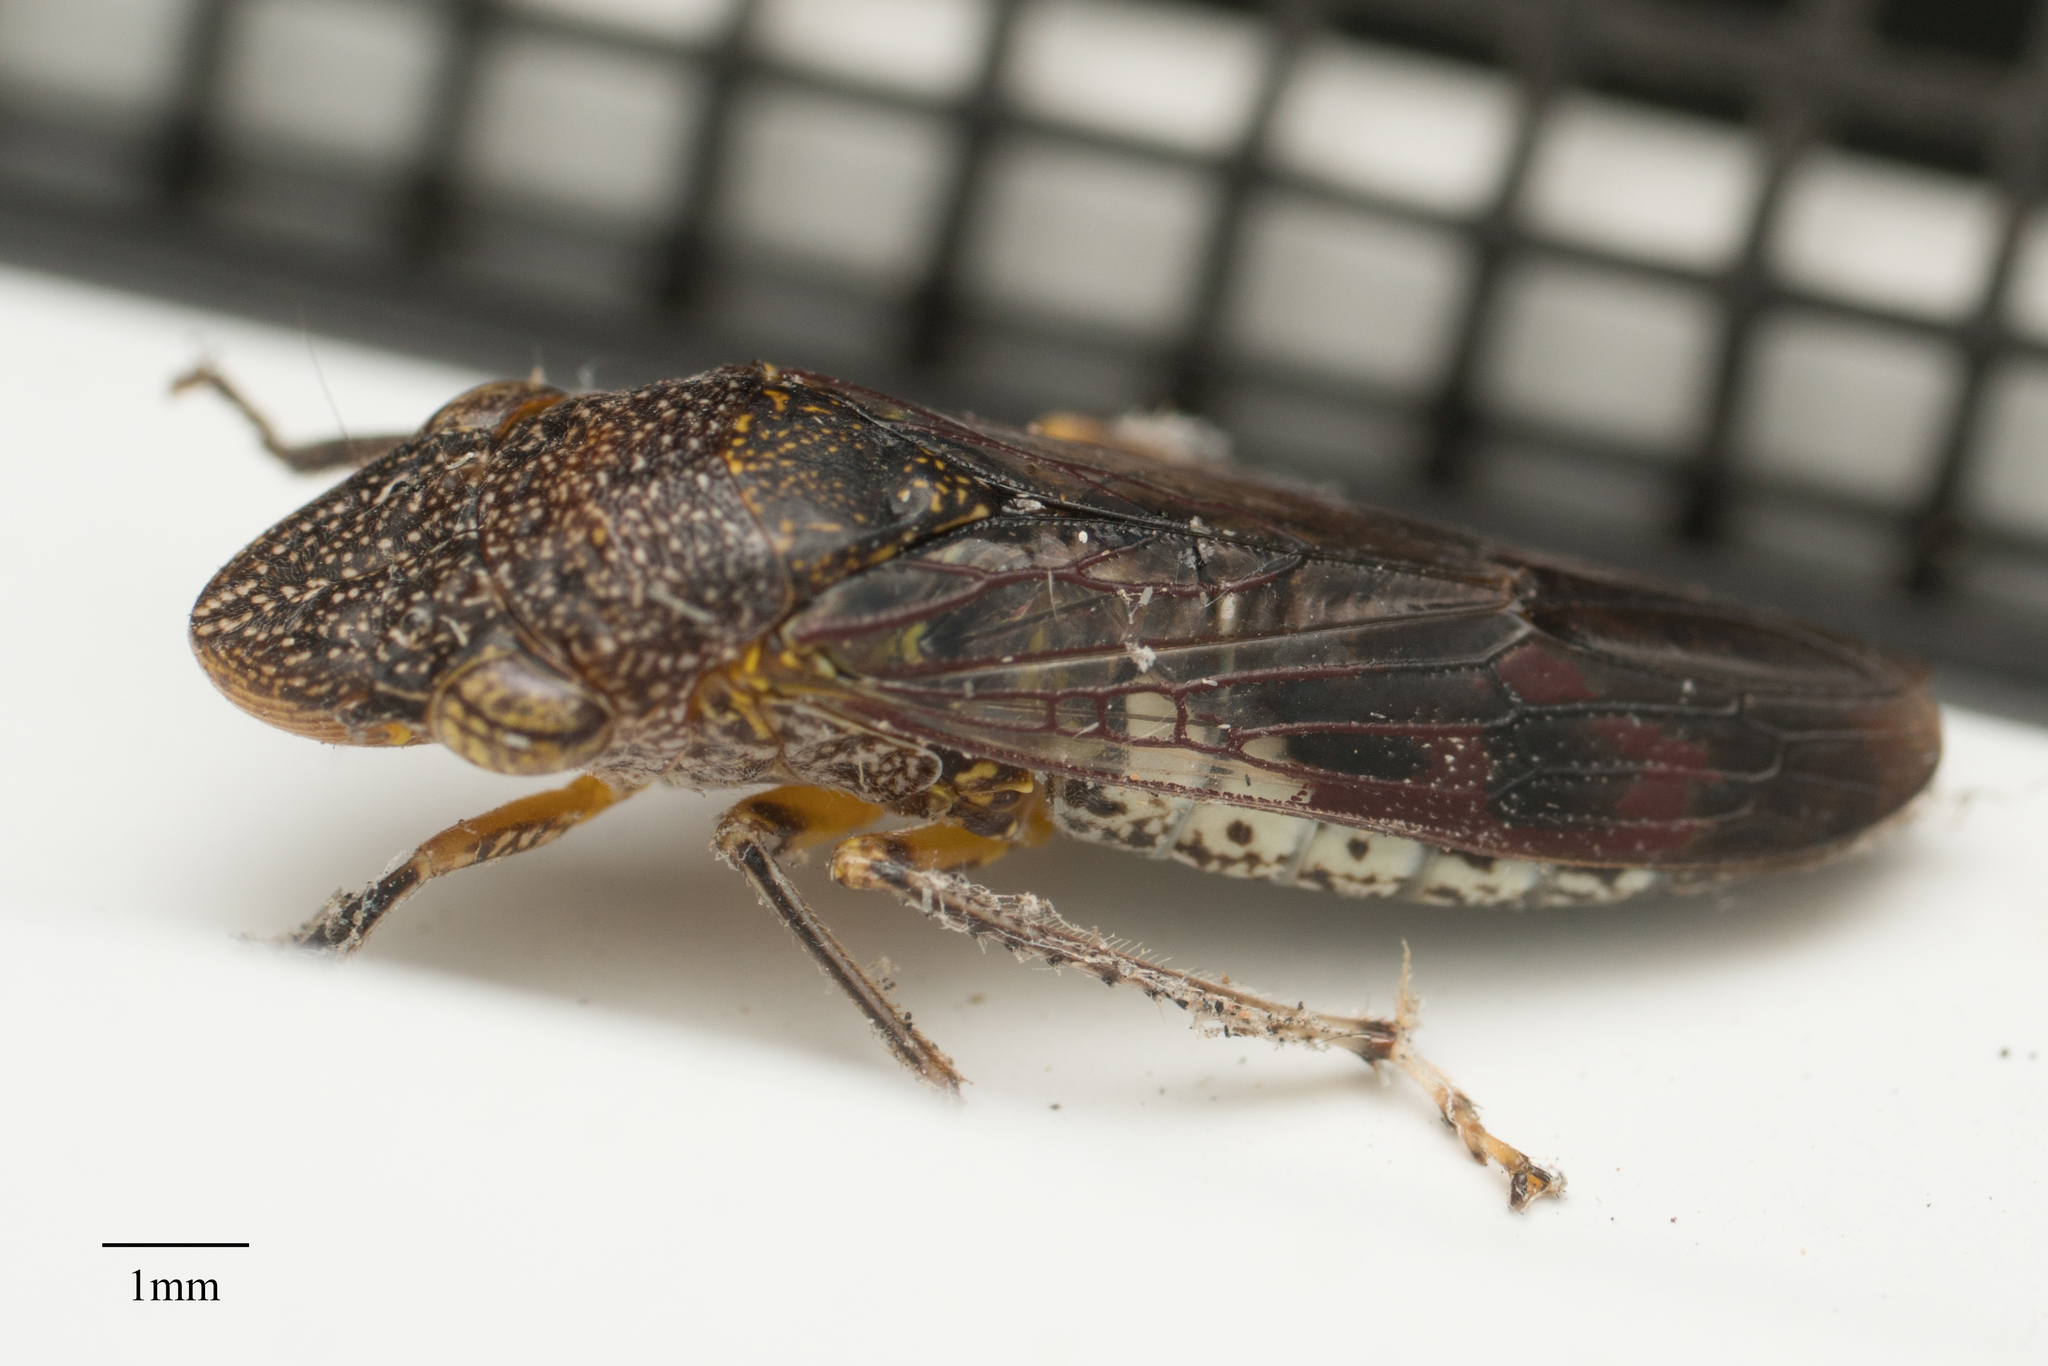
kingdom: Animalia
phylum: Arthropoda
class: Insecta
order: Hemiptera
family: Cicadellidae
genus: Homalodisca
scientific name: Homalodisca vitripennis
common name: Glassy-winged sharpshooter
